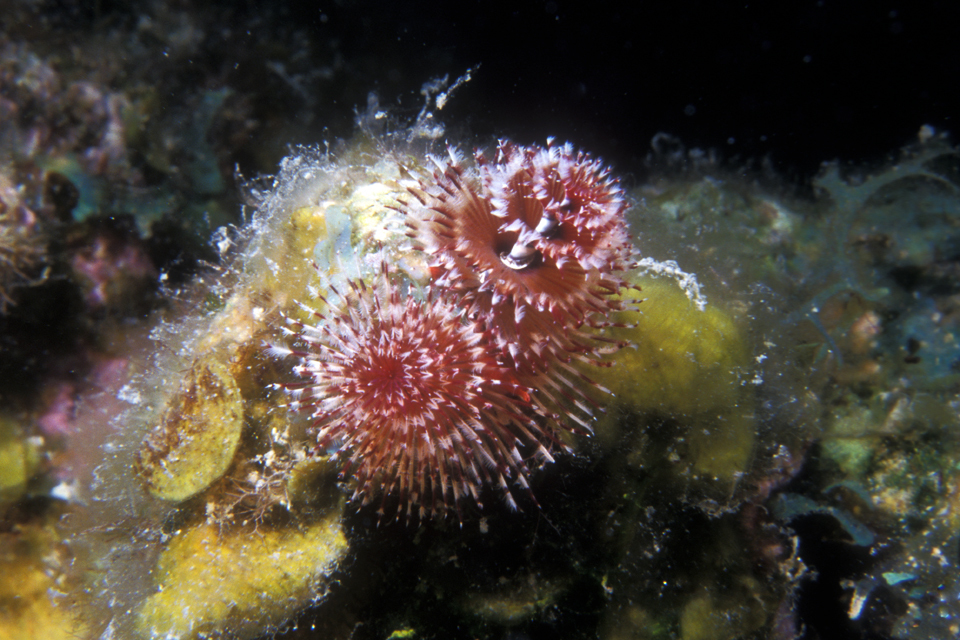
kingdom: Animalia
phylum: Annelida
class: Polychaeta
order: Sabellida
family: Serpulidae
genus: Spirobranchus
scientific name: Spirobranchus giganteus
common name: Christmas tree worm
